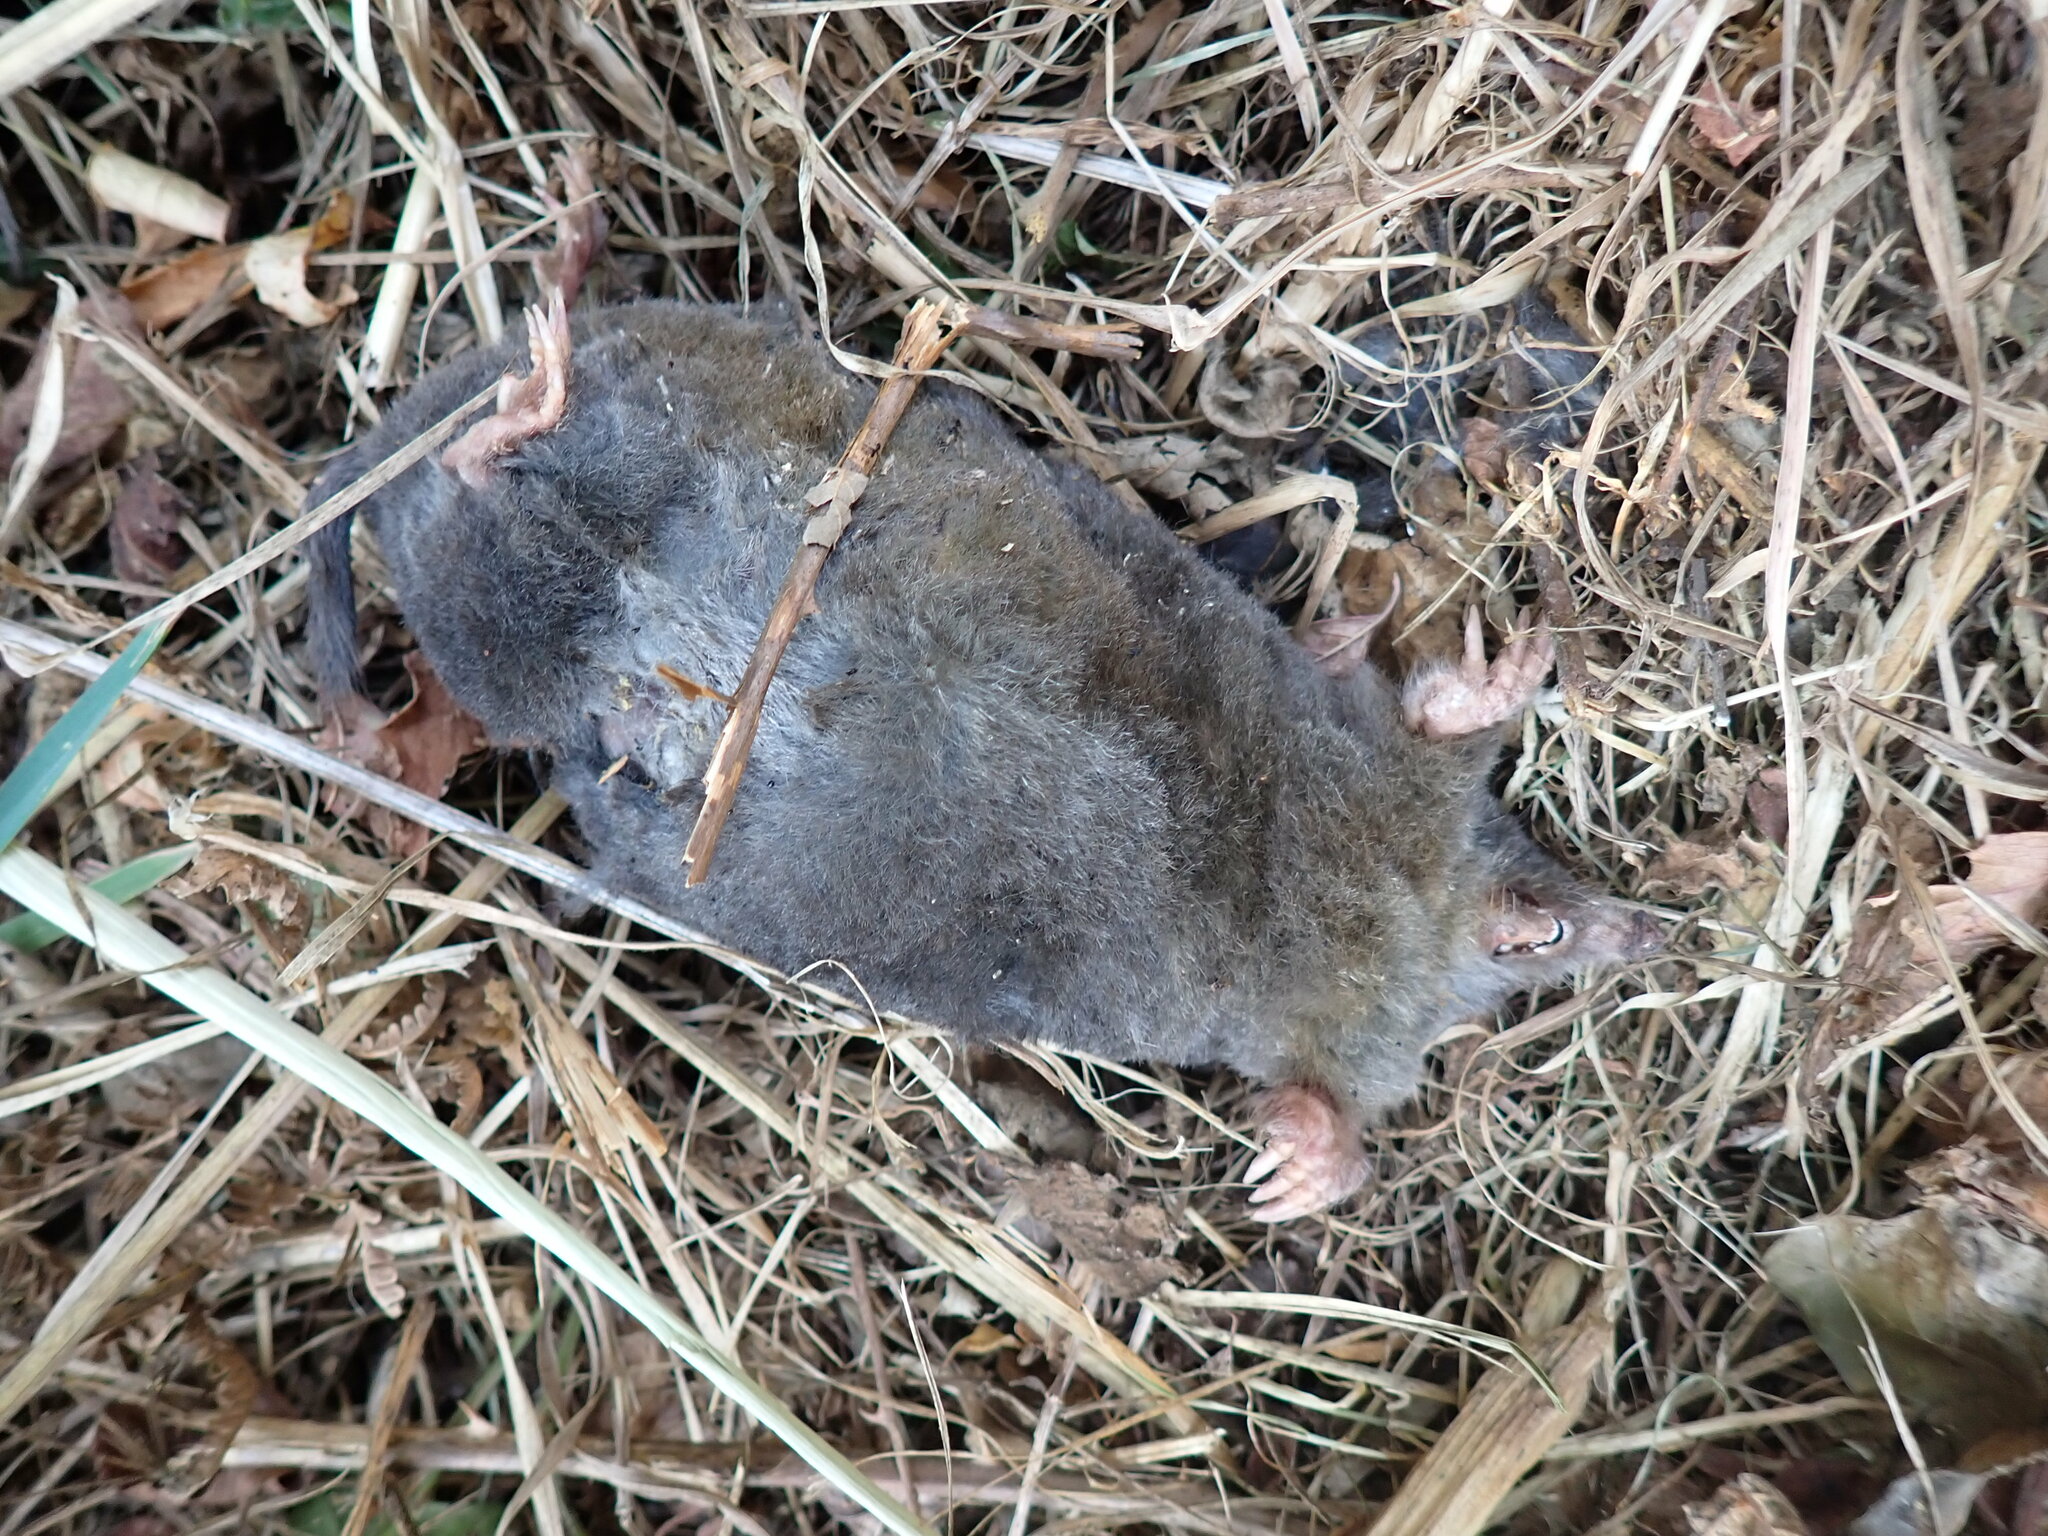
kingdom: Animalia
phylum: Chordata
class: Mammalia
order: Soricomorpha
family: Talpidae
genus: Talpa
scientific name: Talpa europaea
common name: European mole
